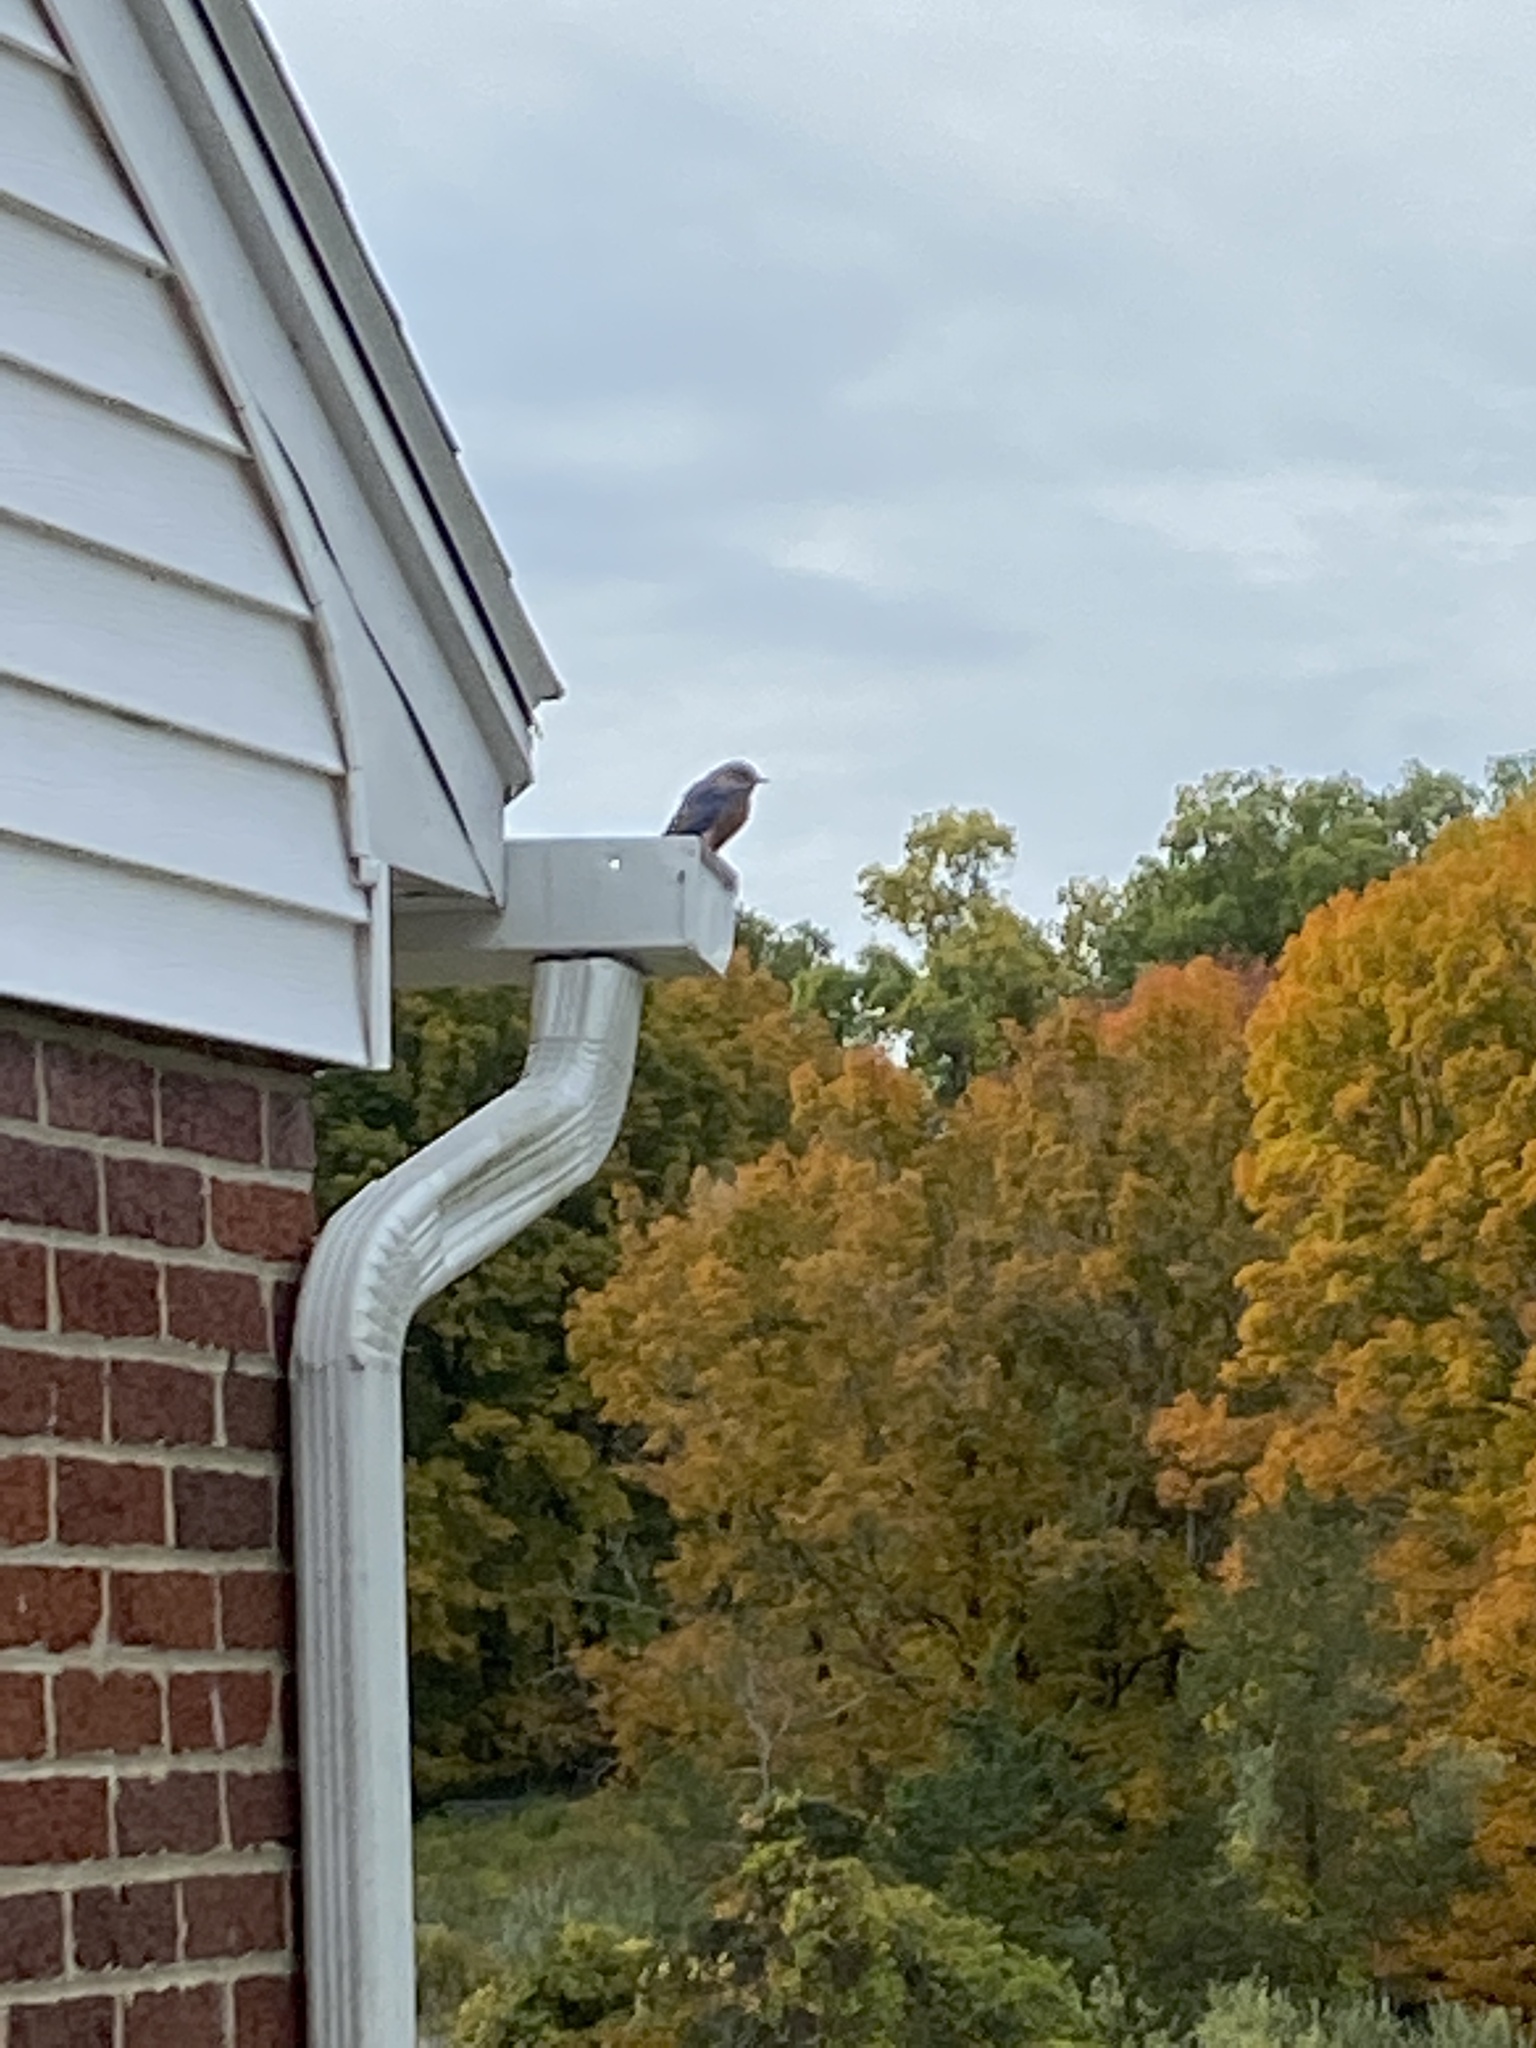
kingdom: Animalia
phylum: Chordata
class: Aves
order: Passeriformes
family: Turdidae
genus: Sialia
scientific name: Sialia sialis
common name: Eastern bluebird
